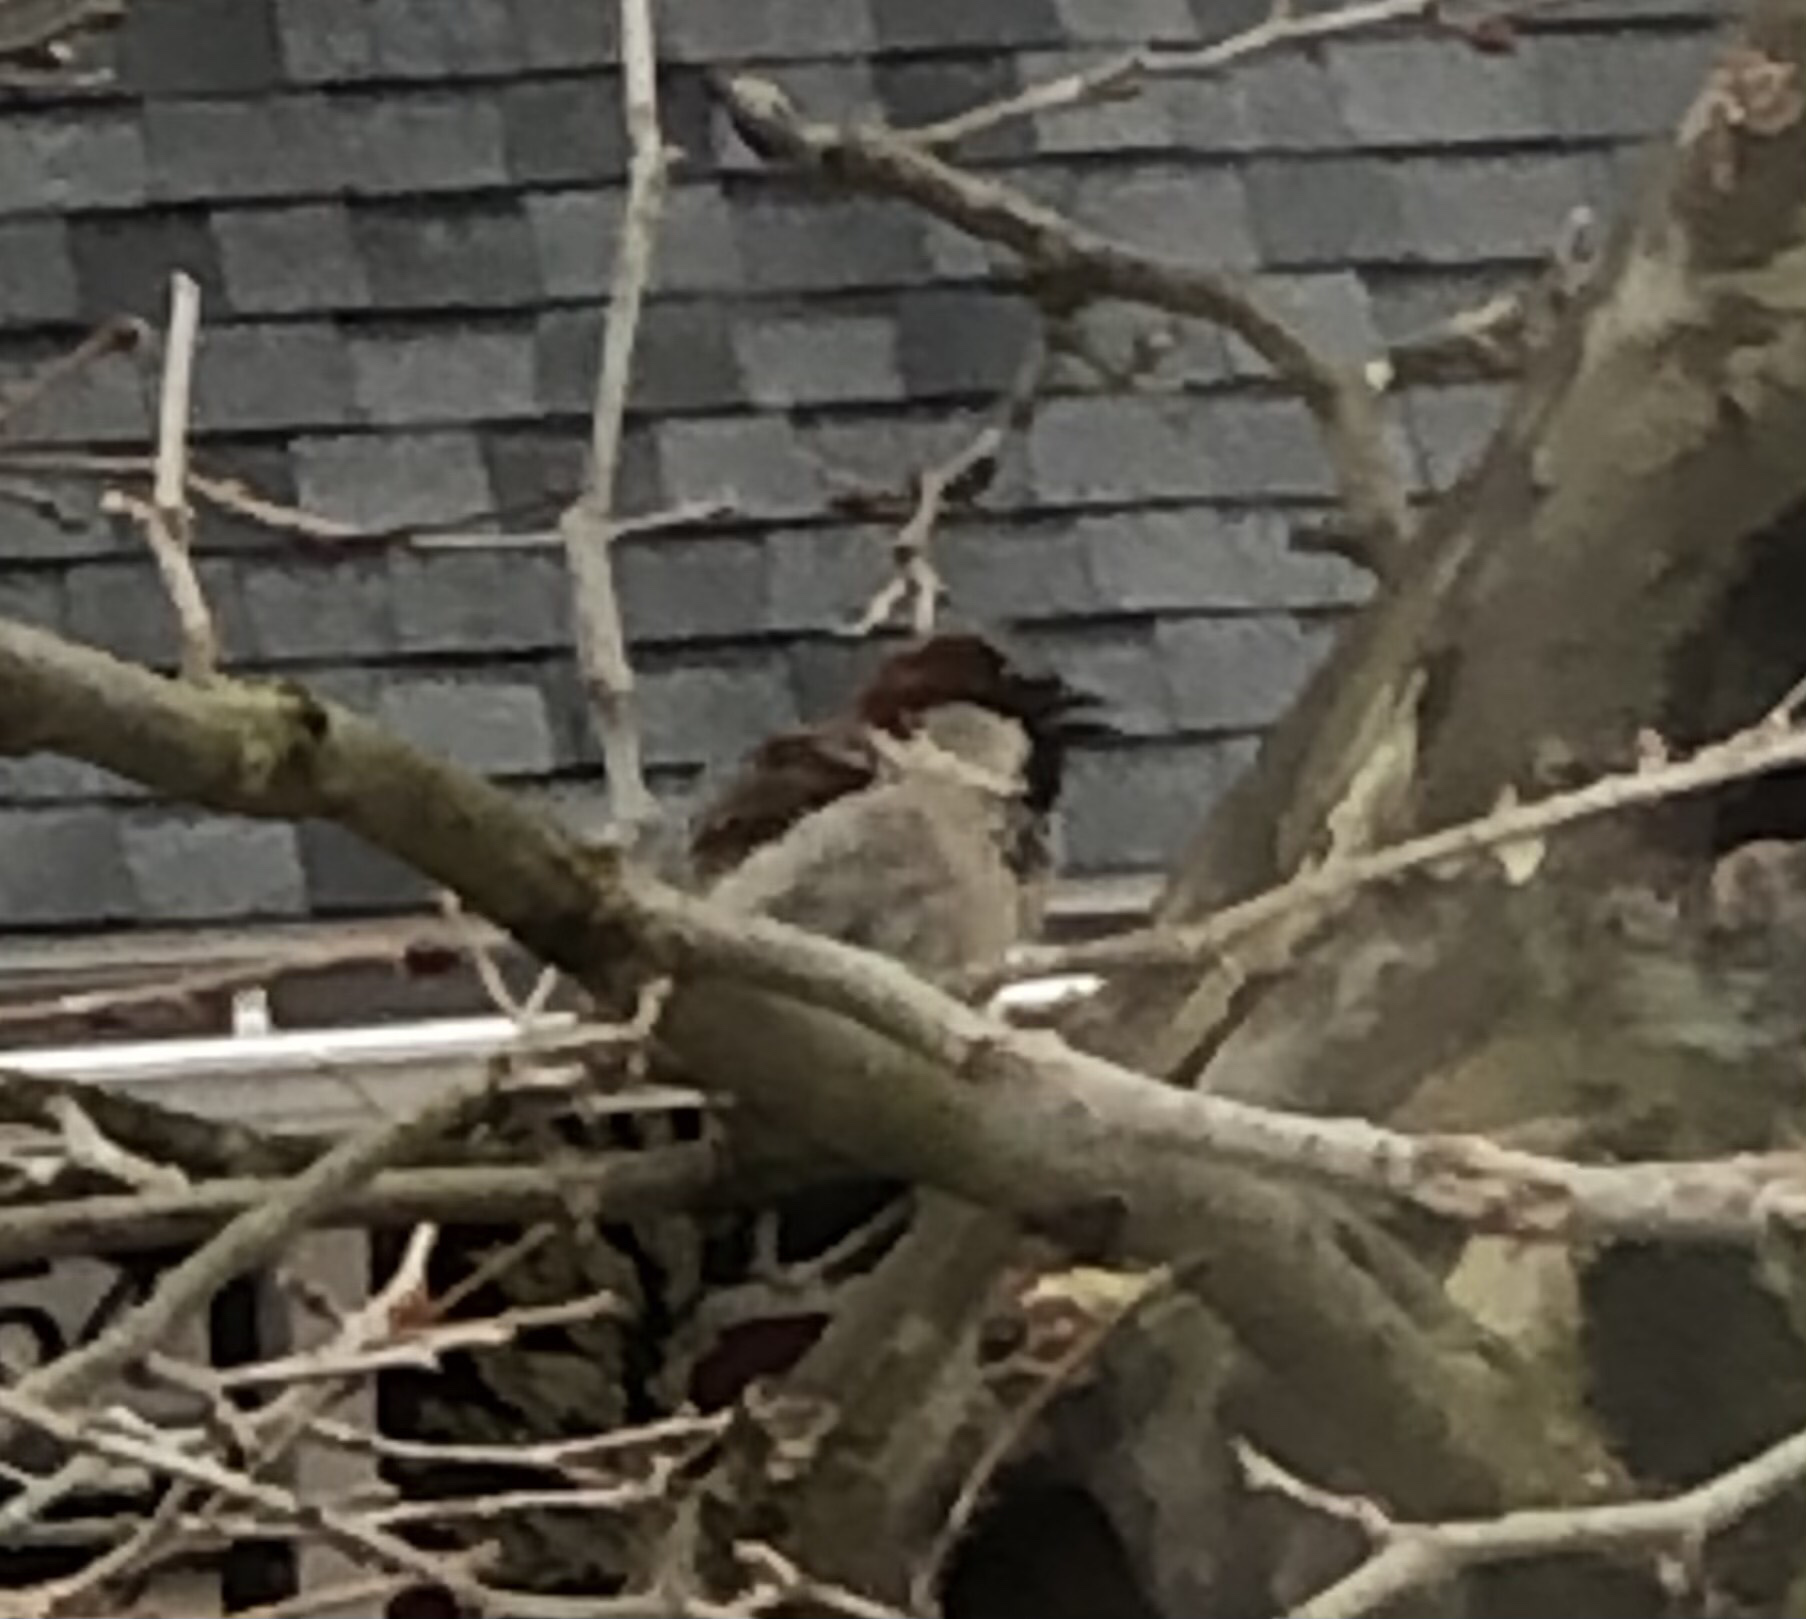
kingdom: Animalia
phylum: Chordata
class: Aves
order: Passeriformes
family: Passeridae
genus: Passer
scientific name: Passer domesticus
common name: House sparrow
